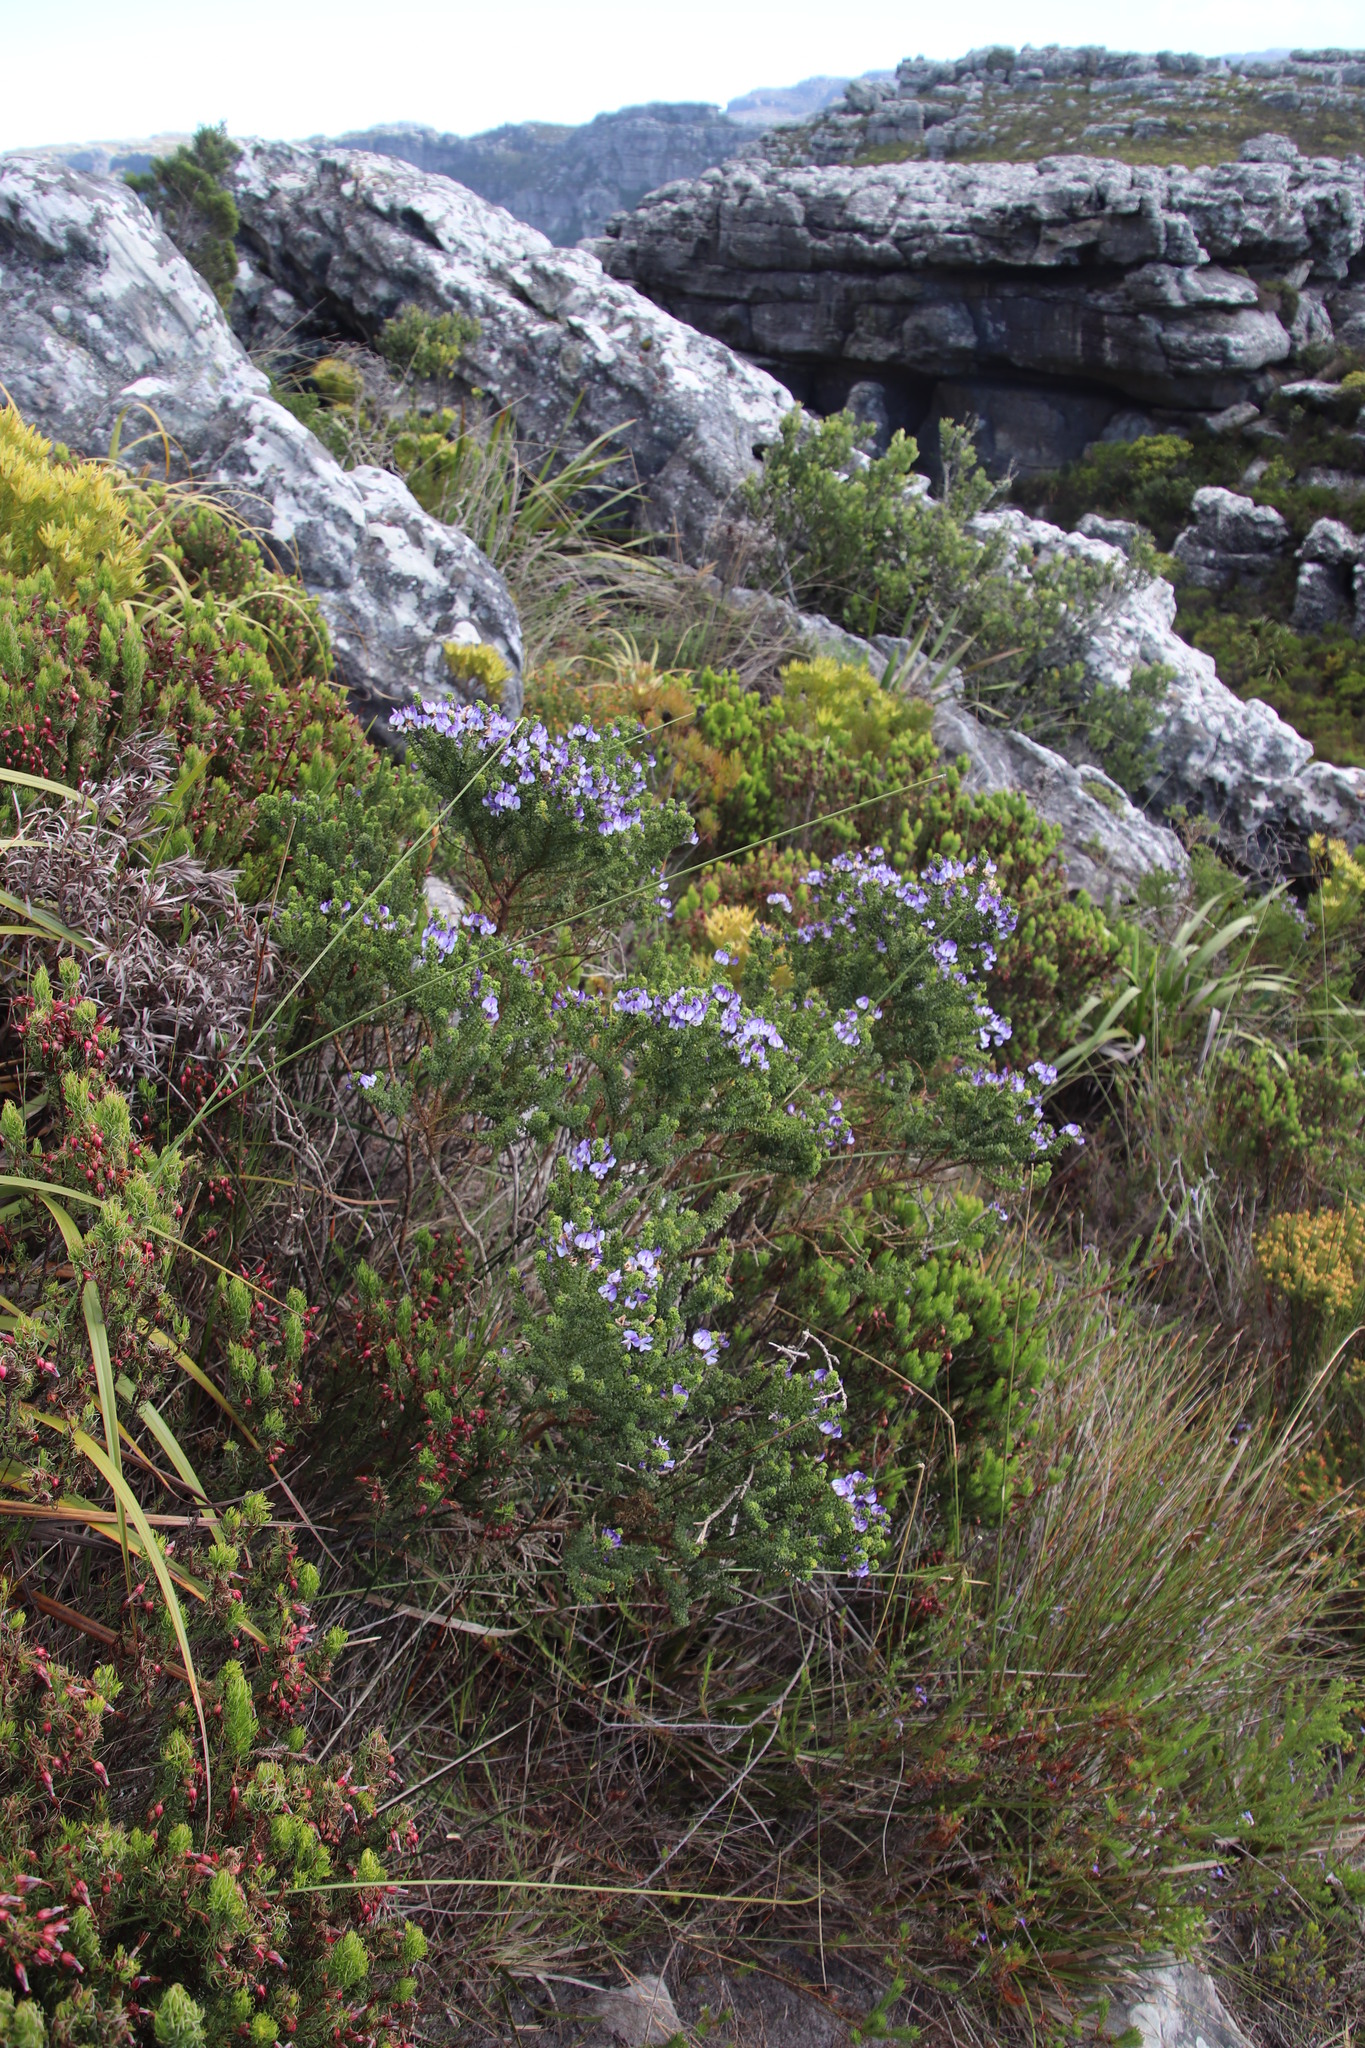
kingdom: Plantae
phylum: Tracheophyta
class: Magnoliopsida
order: Fabales
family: Fabaceae
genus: Psoralea
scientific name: Psoralea aculeata
